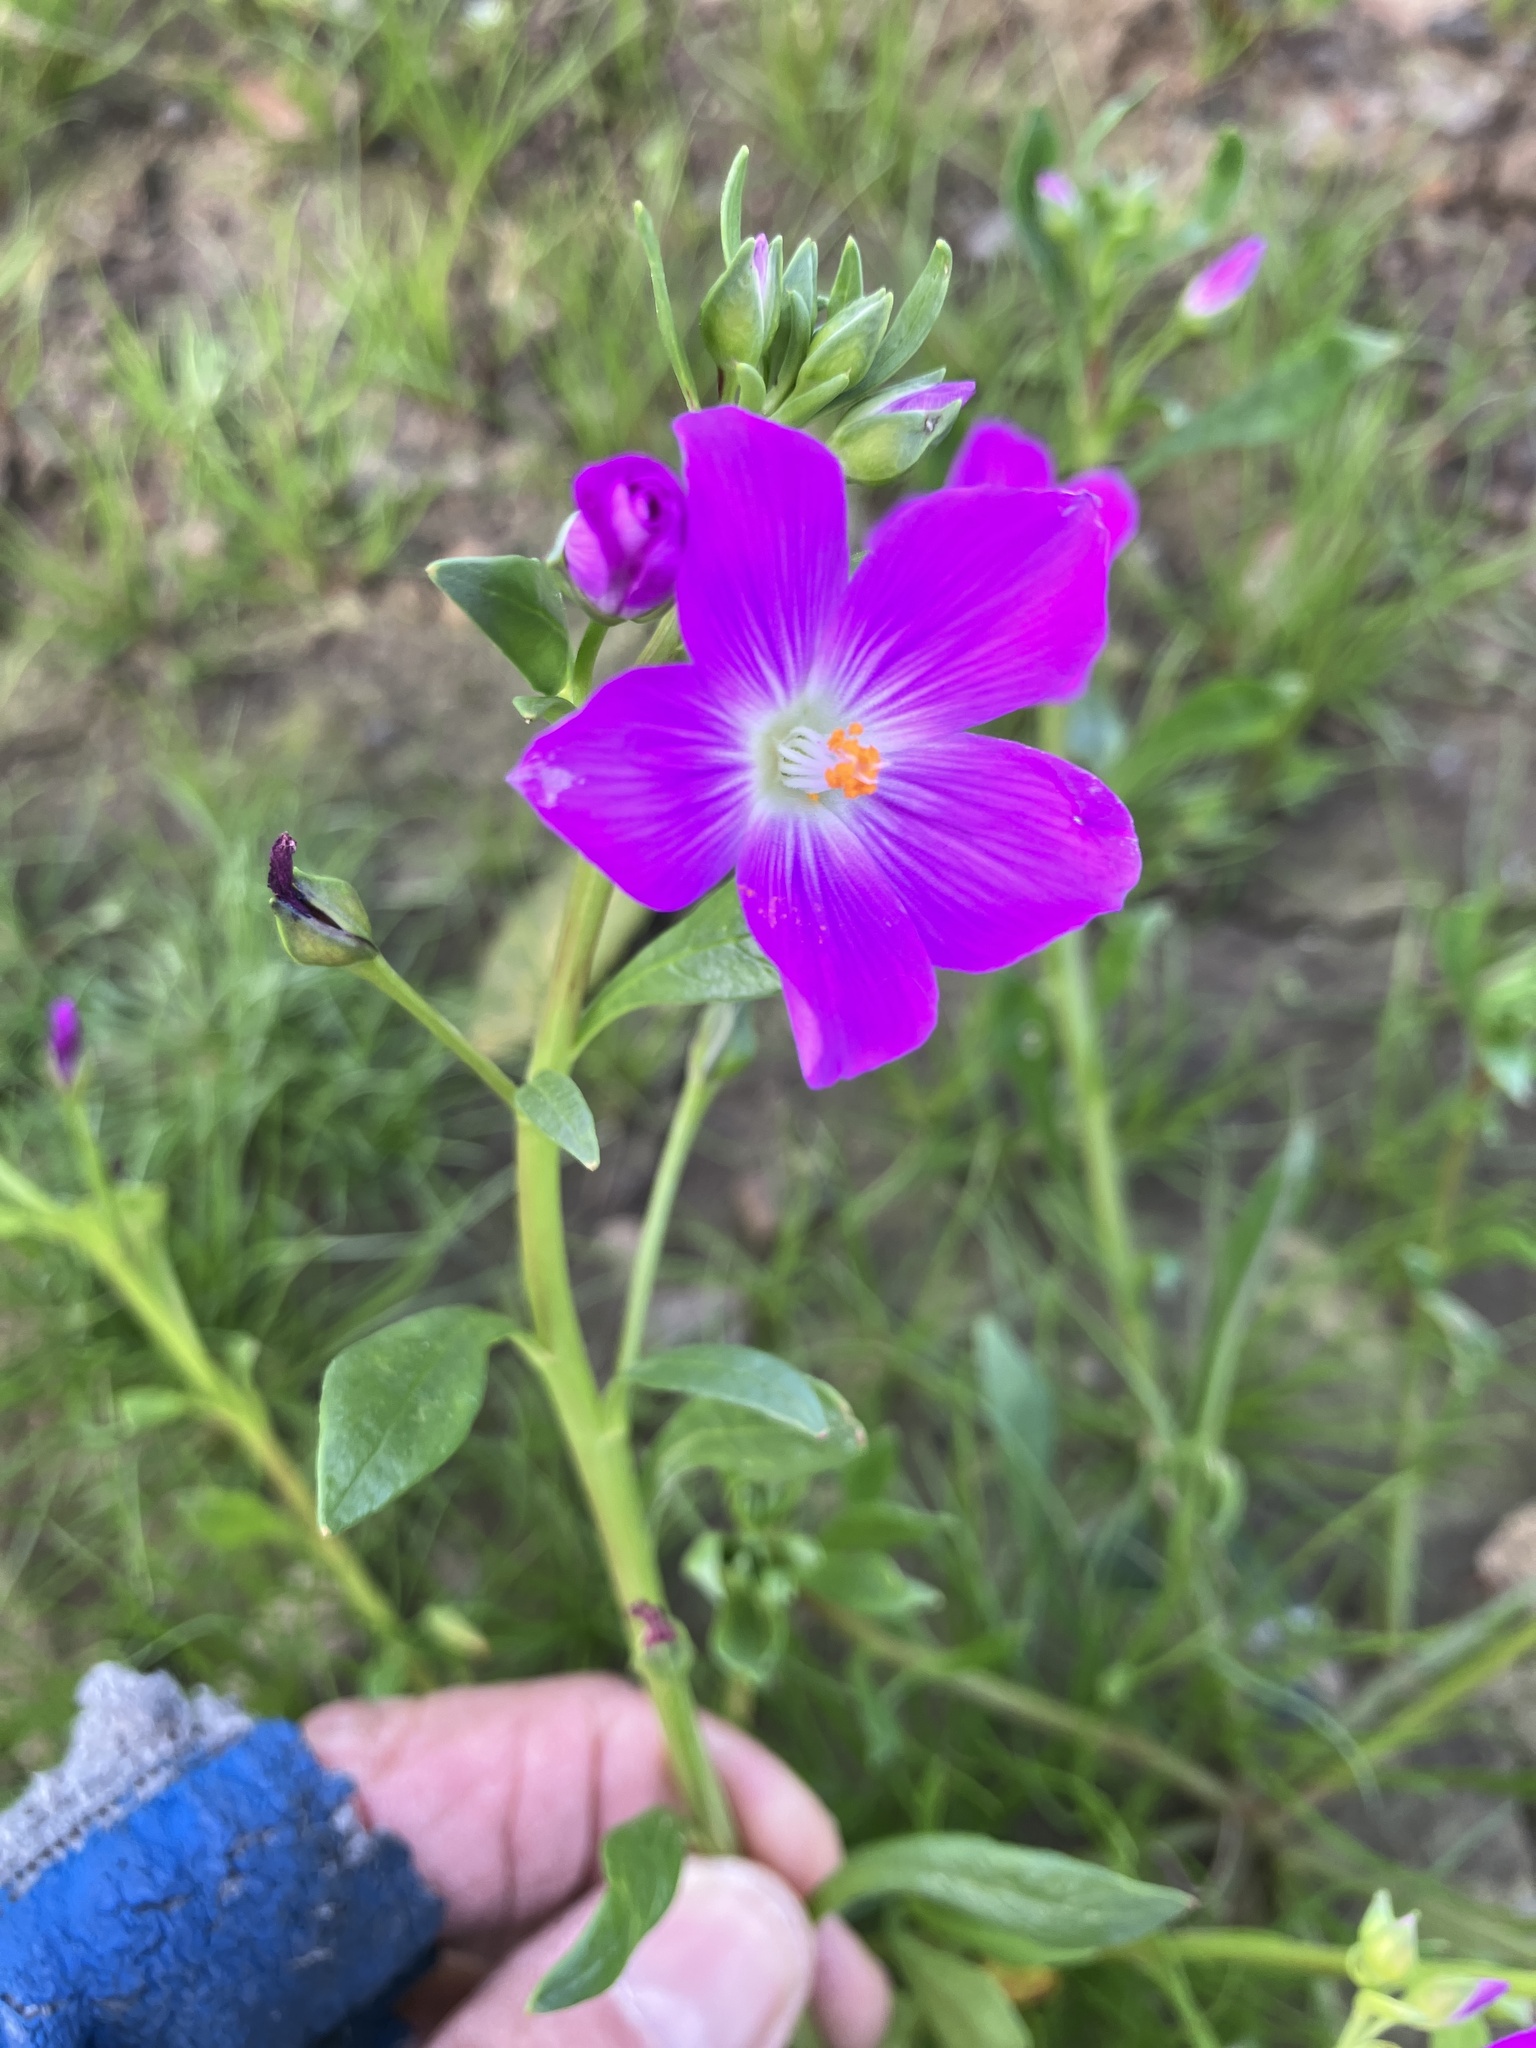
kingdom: Plantae
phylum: Tracheophyta
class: Magnoliopsida
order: Caryophyllales
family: Montiaceae
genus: Calandrinia
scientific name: Calandrinia menziesii
